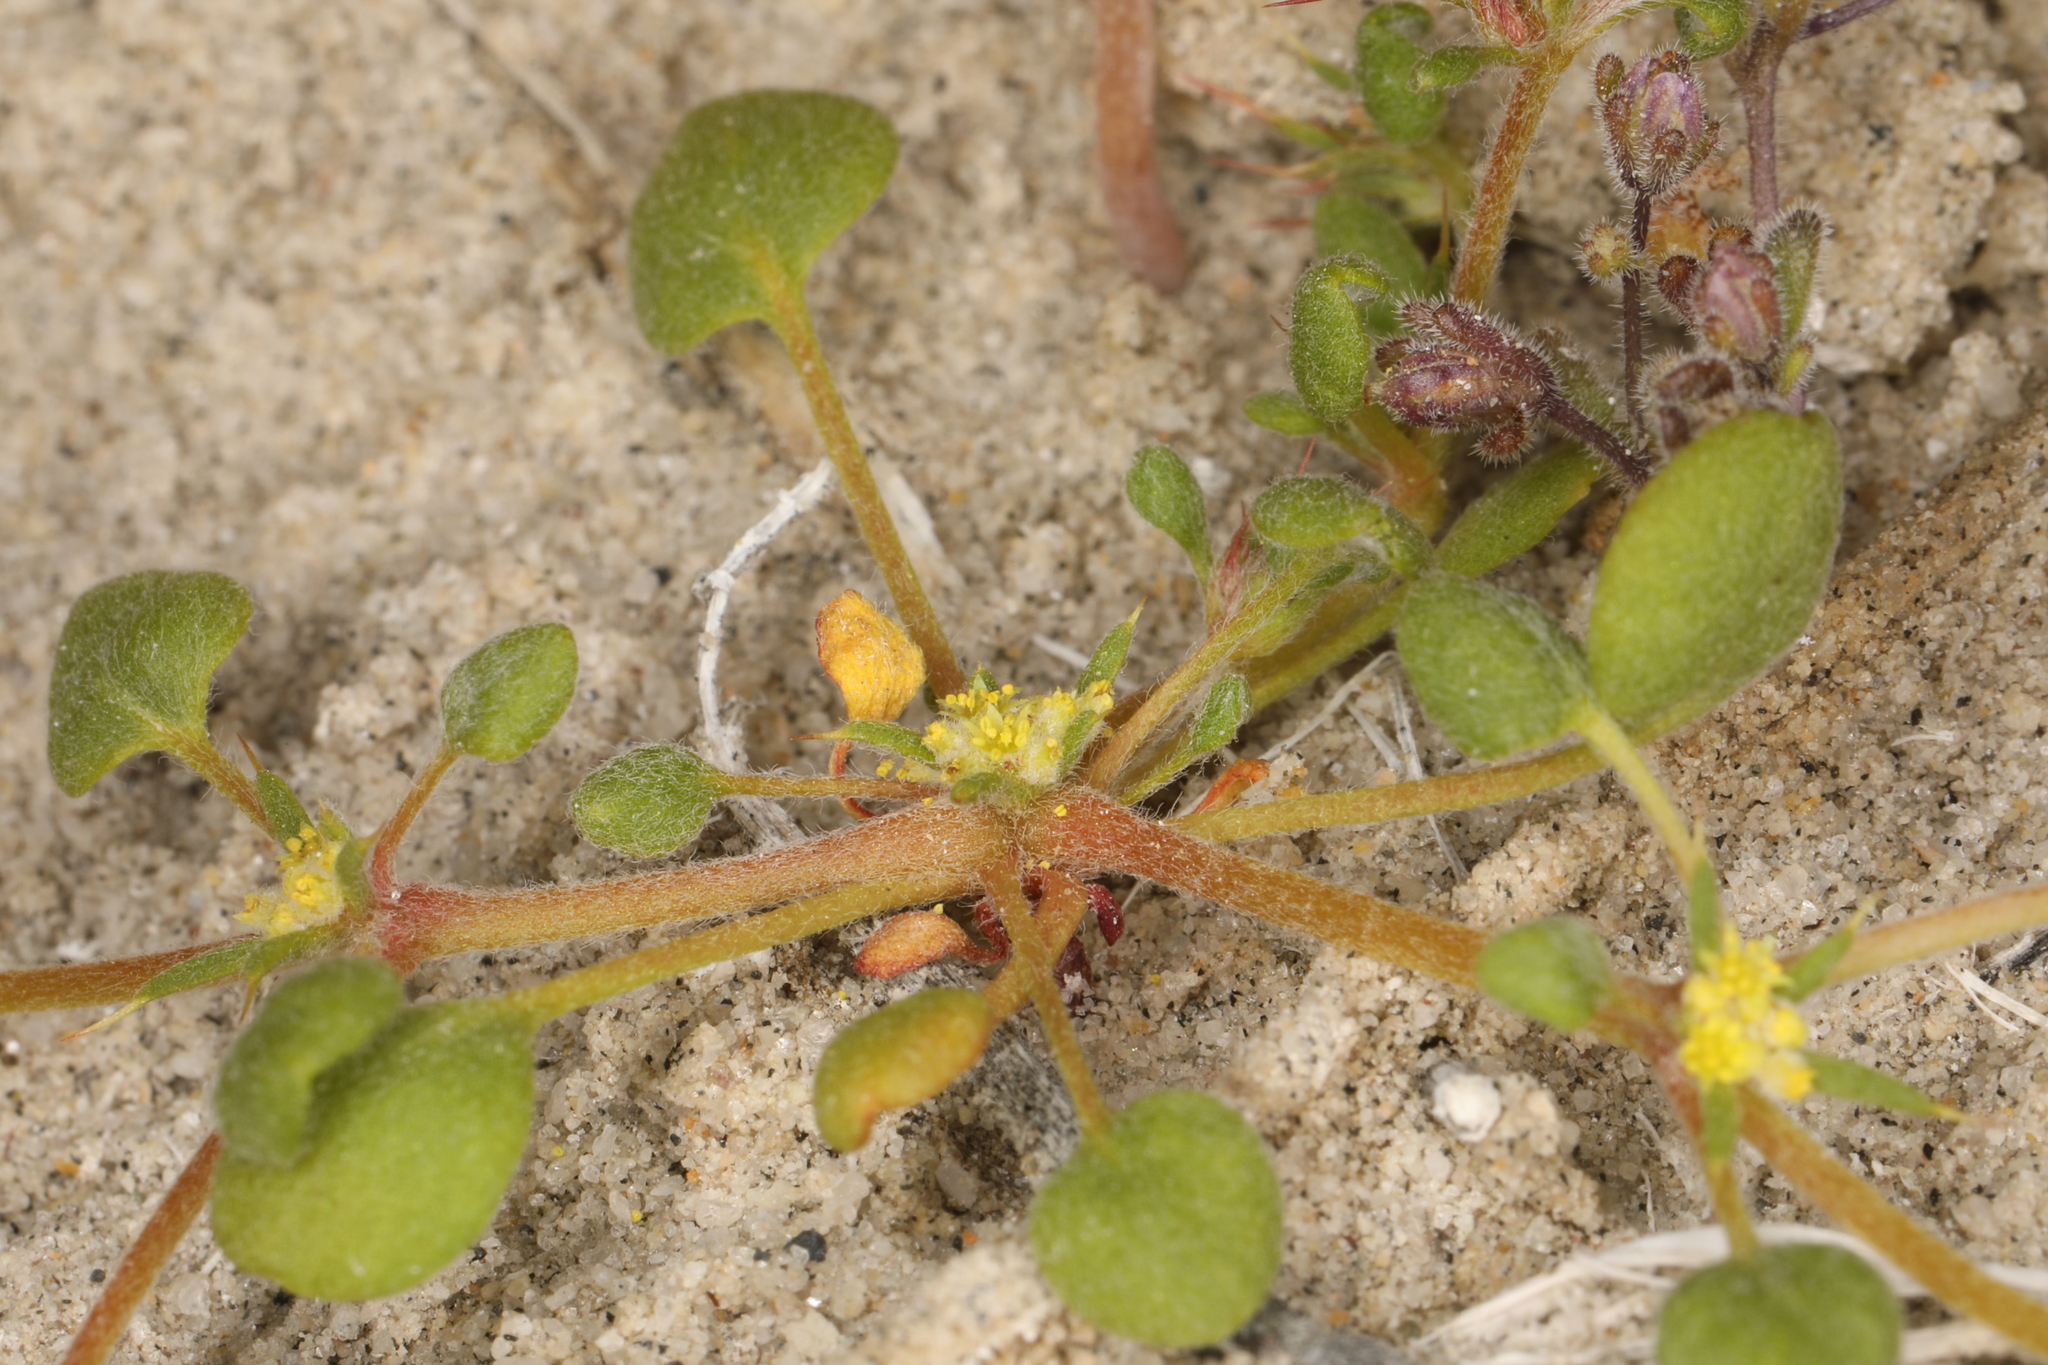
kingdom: Plantae
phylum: Tracheophyta
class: Magnoliopsida
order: Caryophyllales
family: Polygonaceae
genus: Goodmania
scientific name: Goodmania luteola
